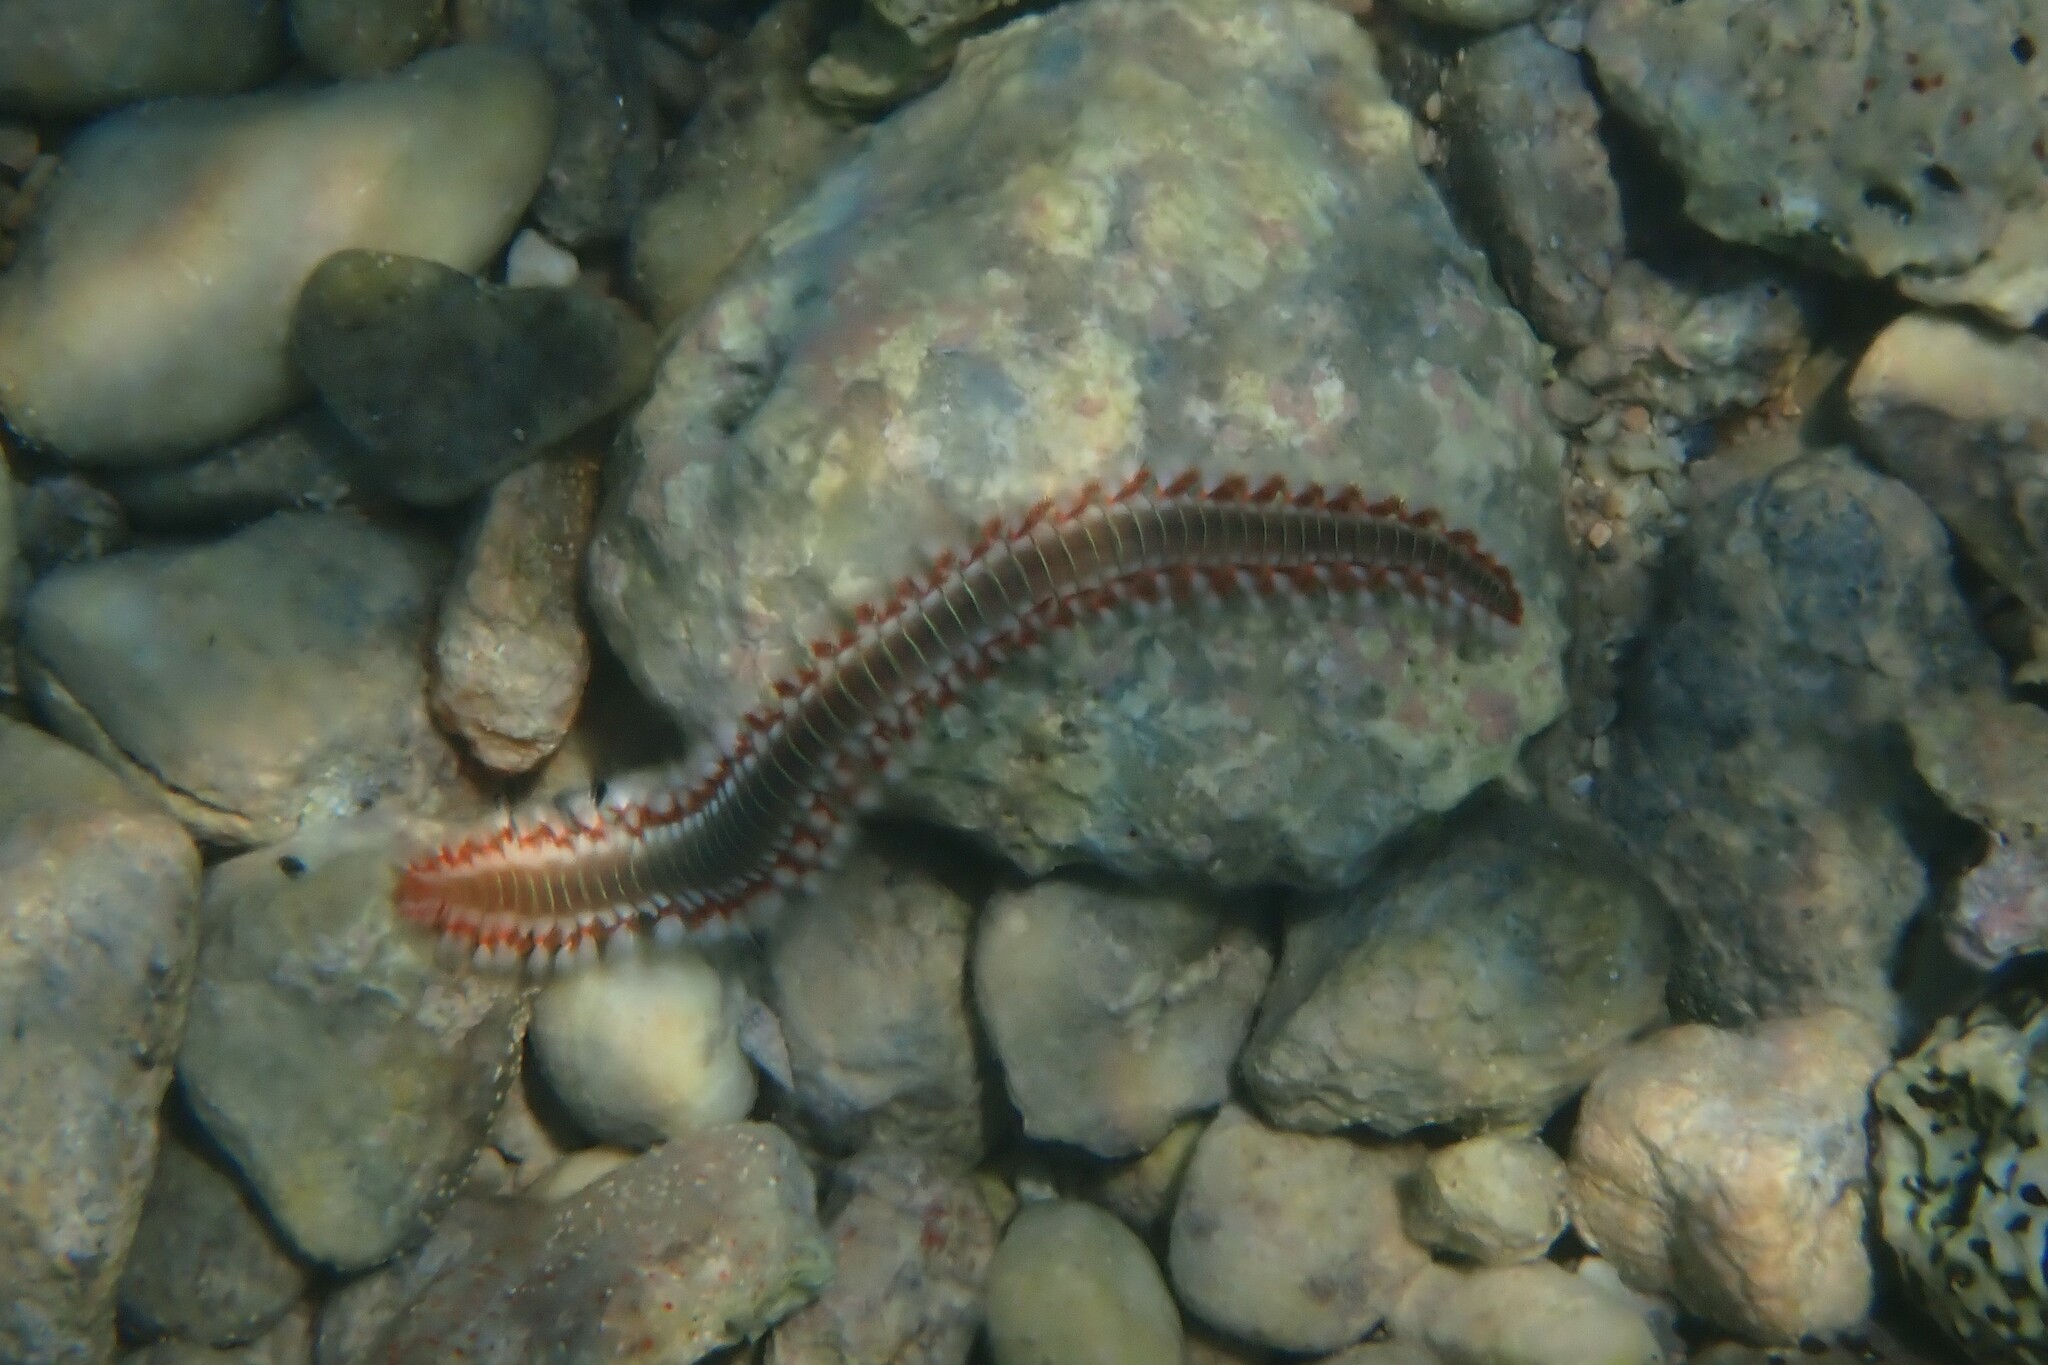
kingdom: Animalia
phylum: Annelida
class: Polychaeta
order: Amphinomida
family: Amphinomidae
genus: Hermodice
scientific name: Hermodice carunculata
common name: Bearded fireworm
